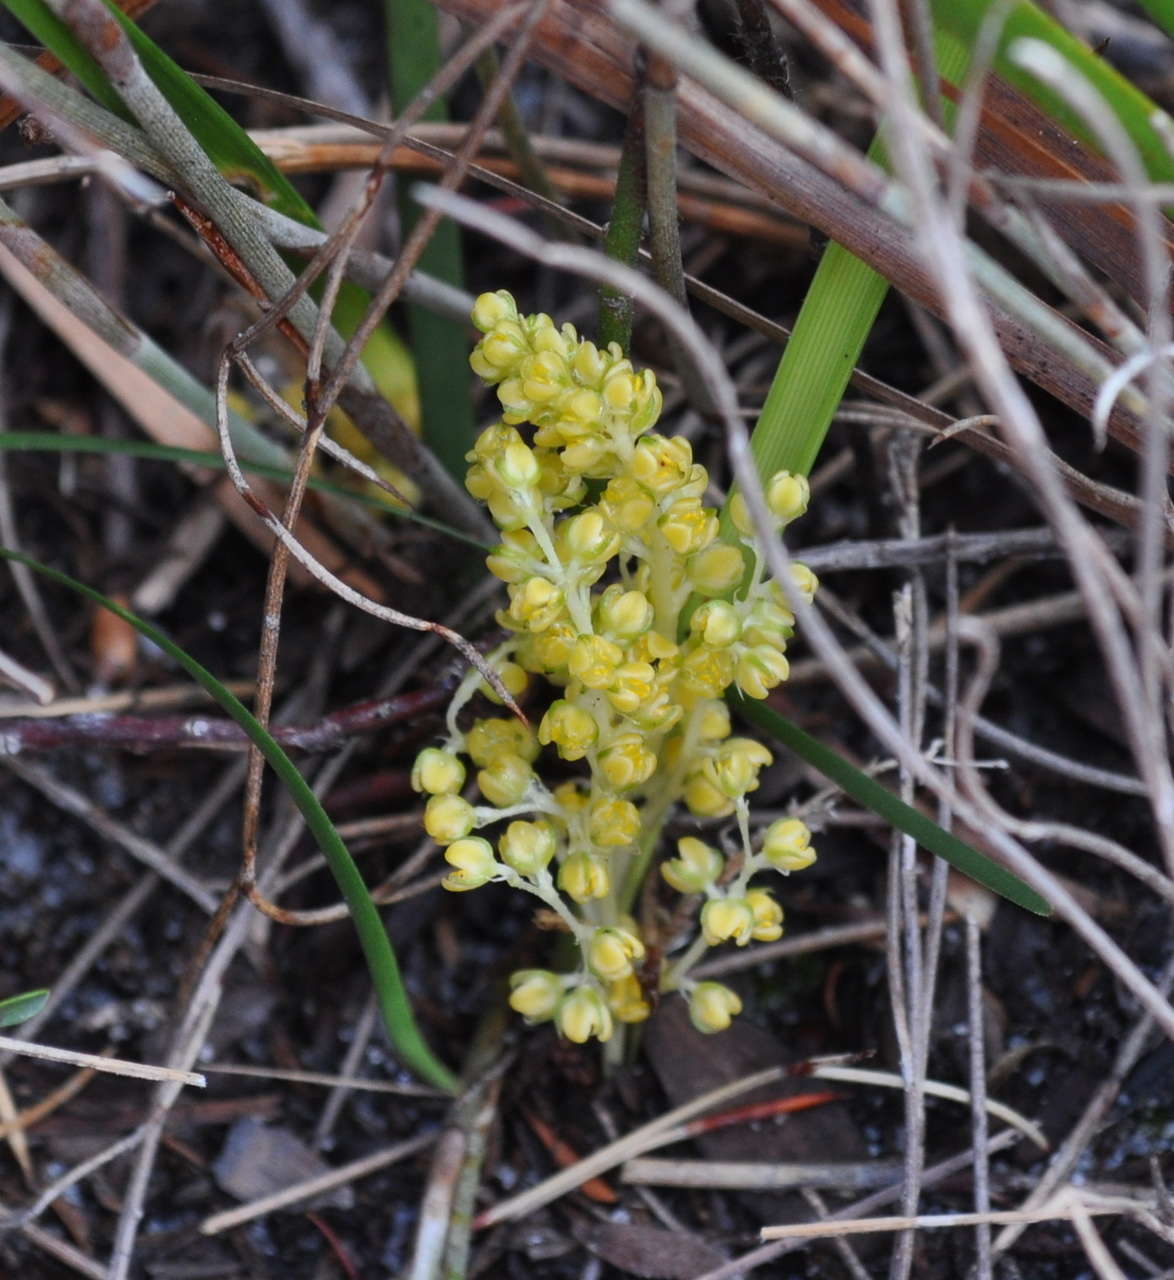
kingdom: Plantae
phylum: Tracheophyta
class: Liliopsida
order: Asparagales
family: Asparagaceae
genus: Lomandra
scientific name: Lomandra filiformis
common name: Wattle mat-rush
